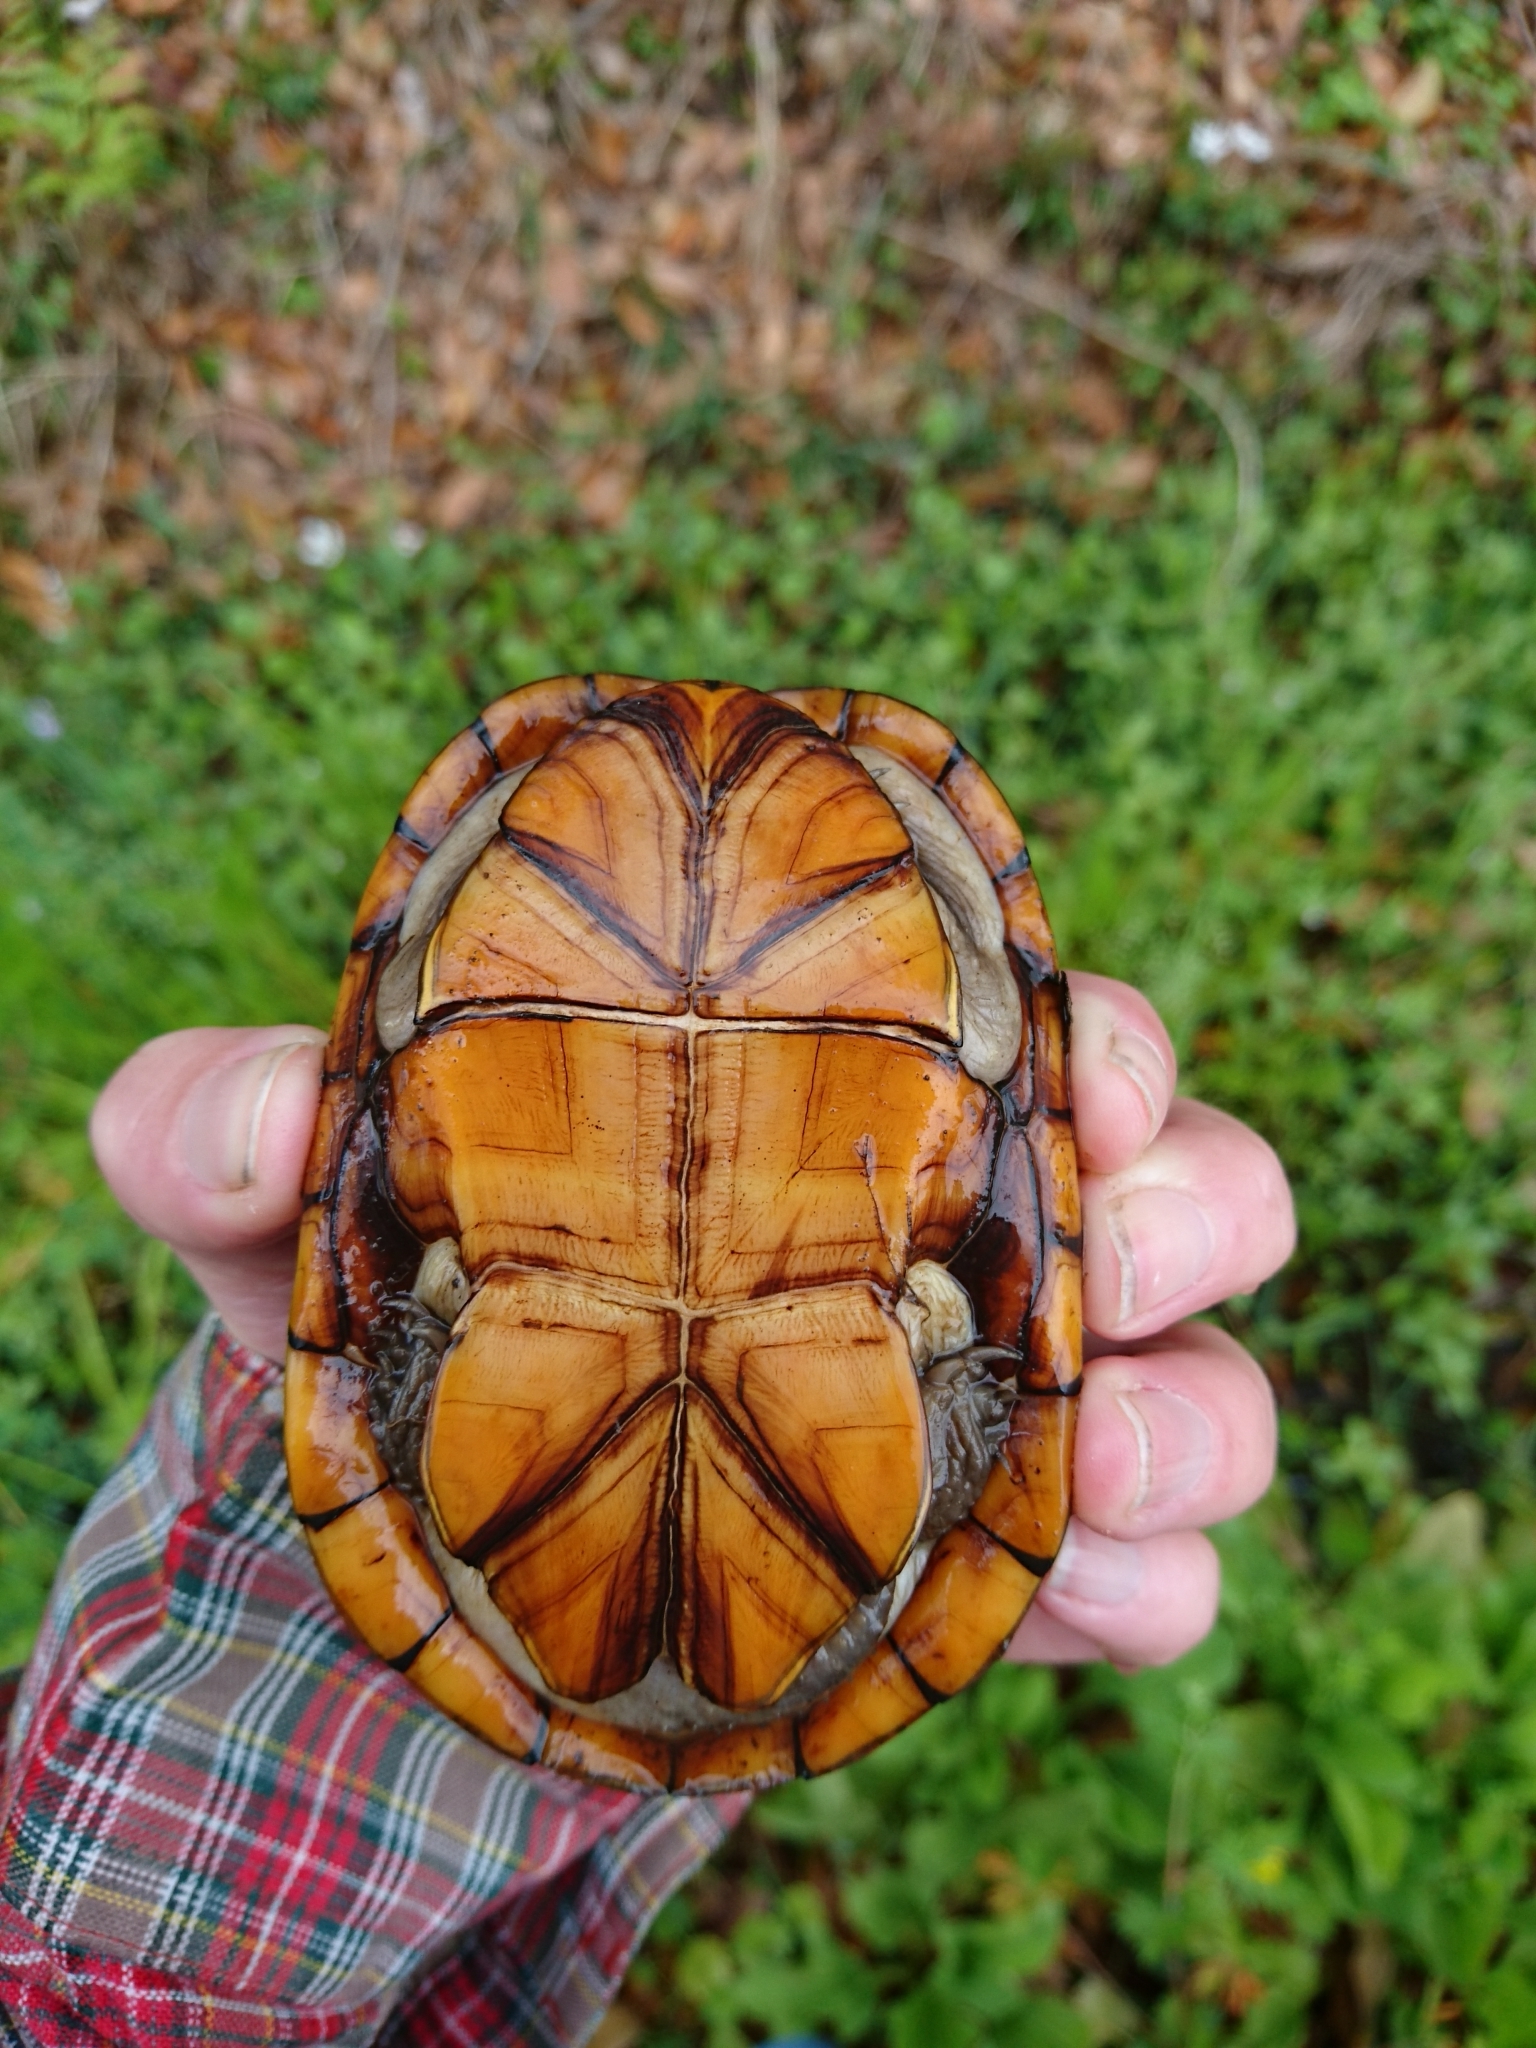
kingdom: Animalia
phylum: Chordata
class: Testudines
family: Kinosternidae
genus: Kinosternon
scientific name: Kinosternon subrubrum
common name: Eastern mud turtle
